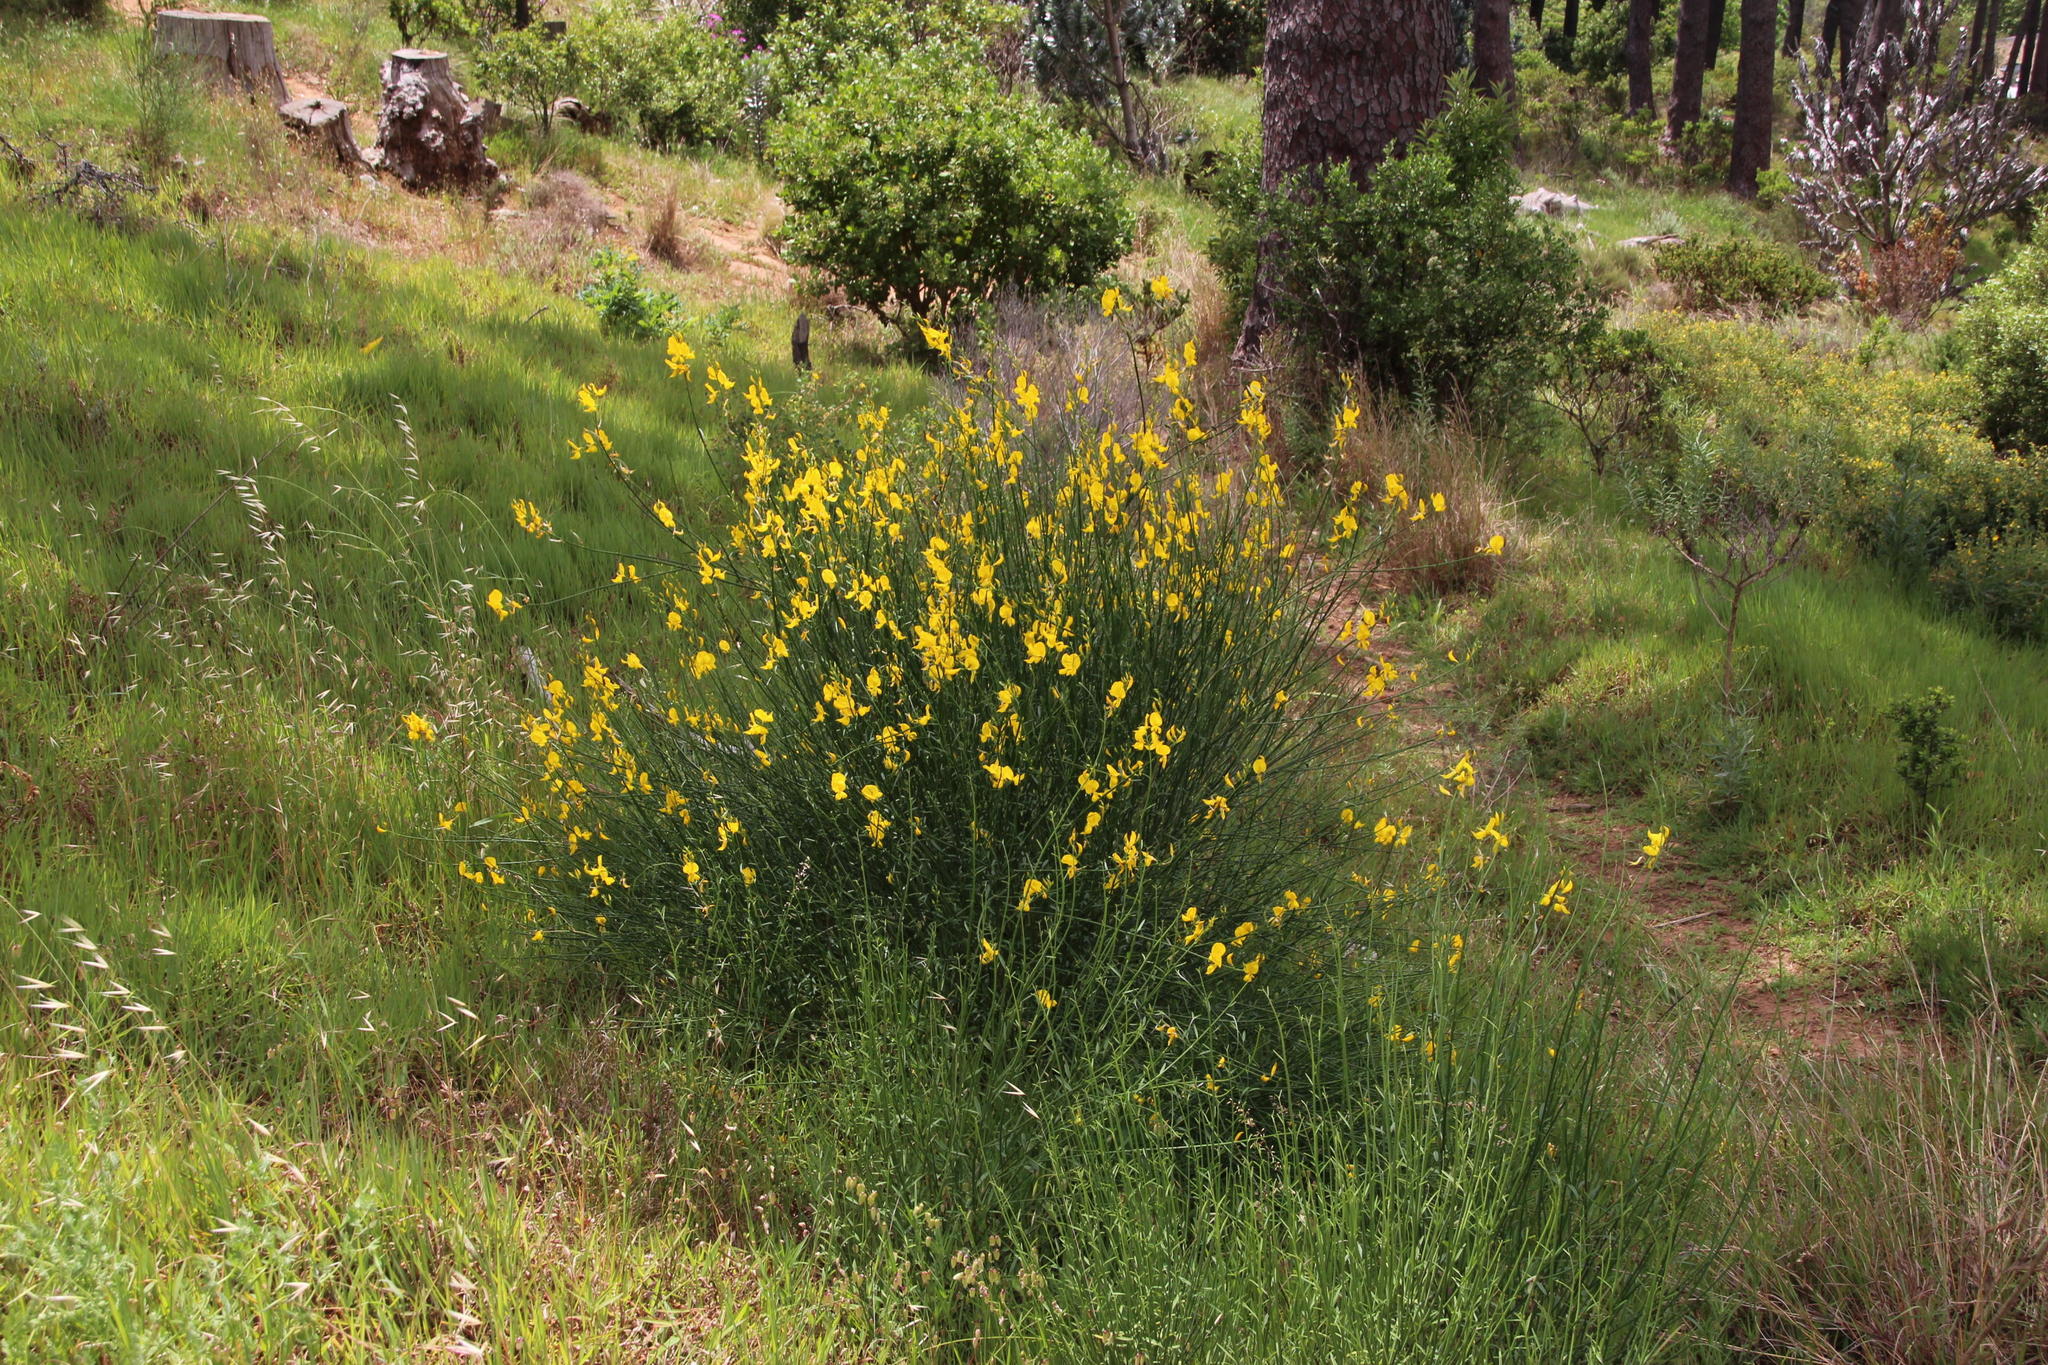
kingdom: Plantae
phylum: Tracheophyta
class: Magnoliopsida
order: Fabales
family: Fabaceae
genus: Spartium
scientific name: Spartium junceum
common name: Spanish broom
